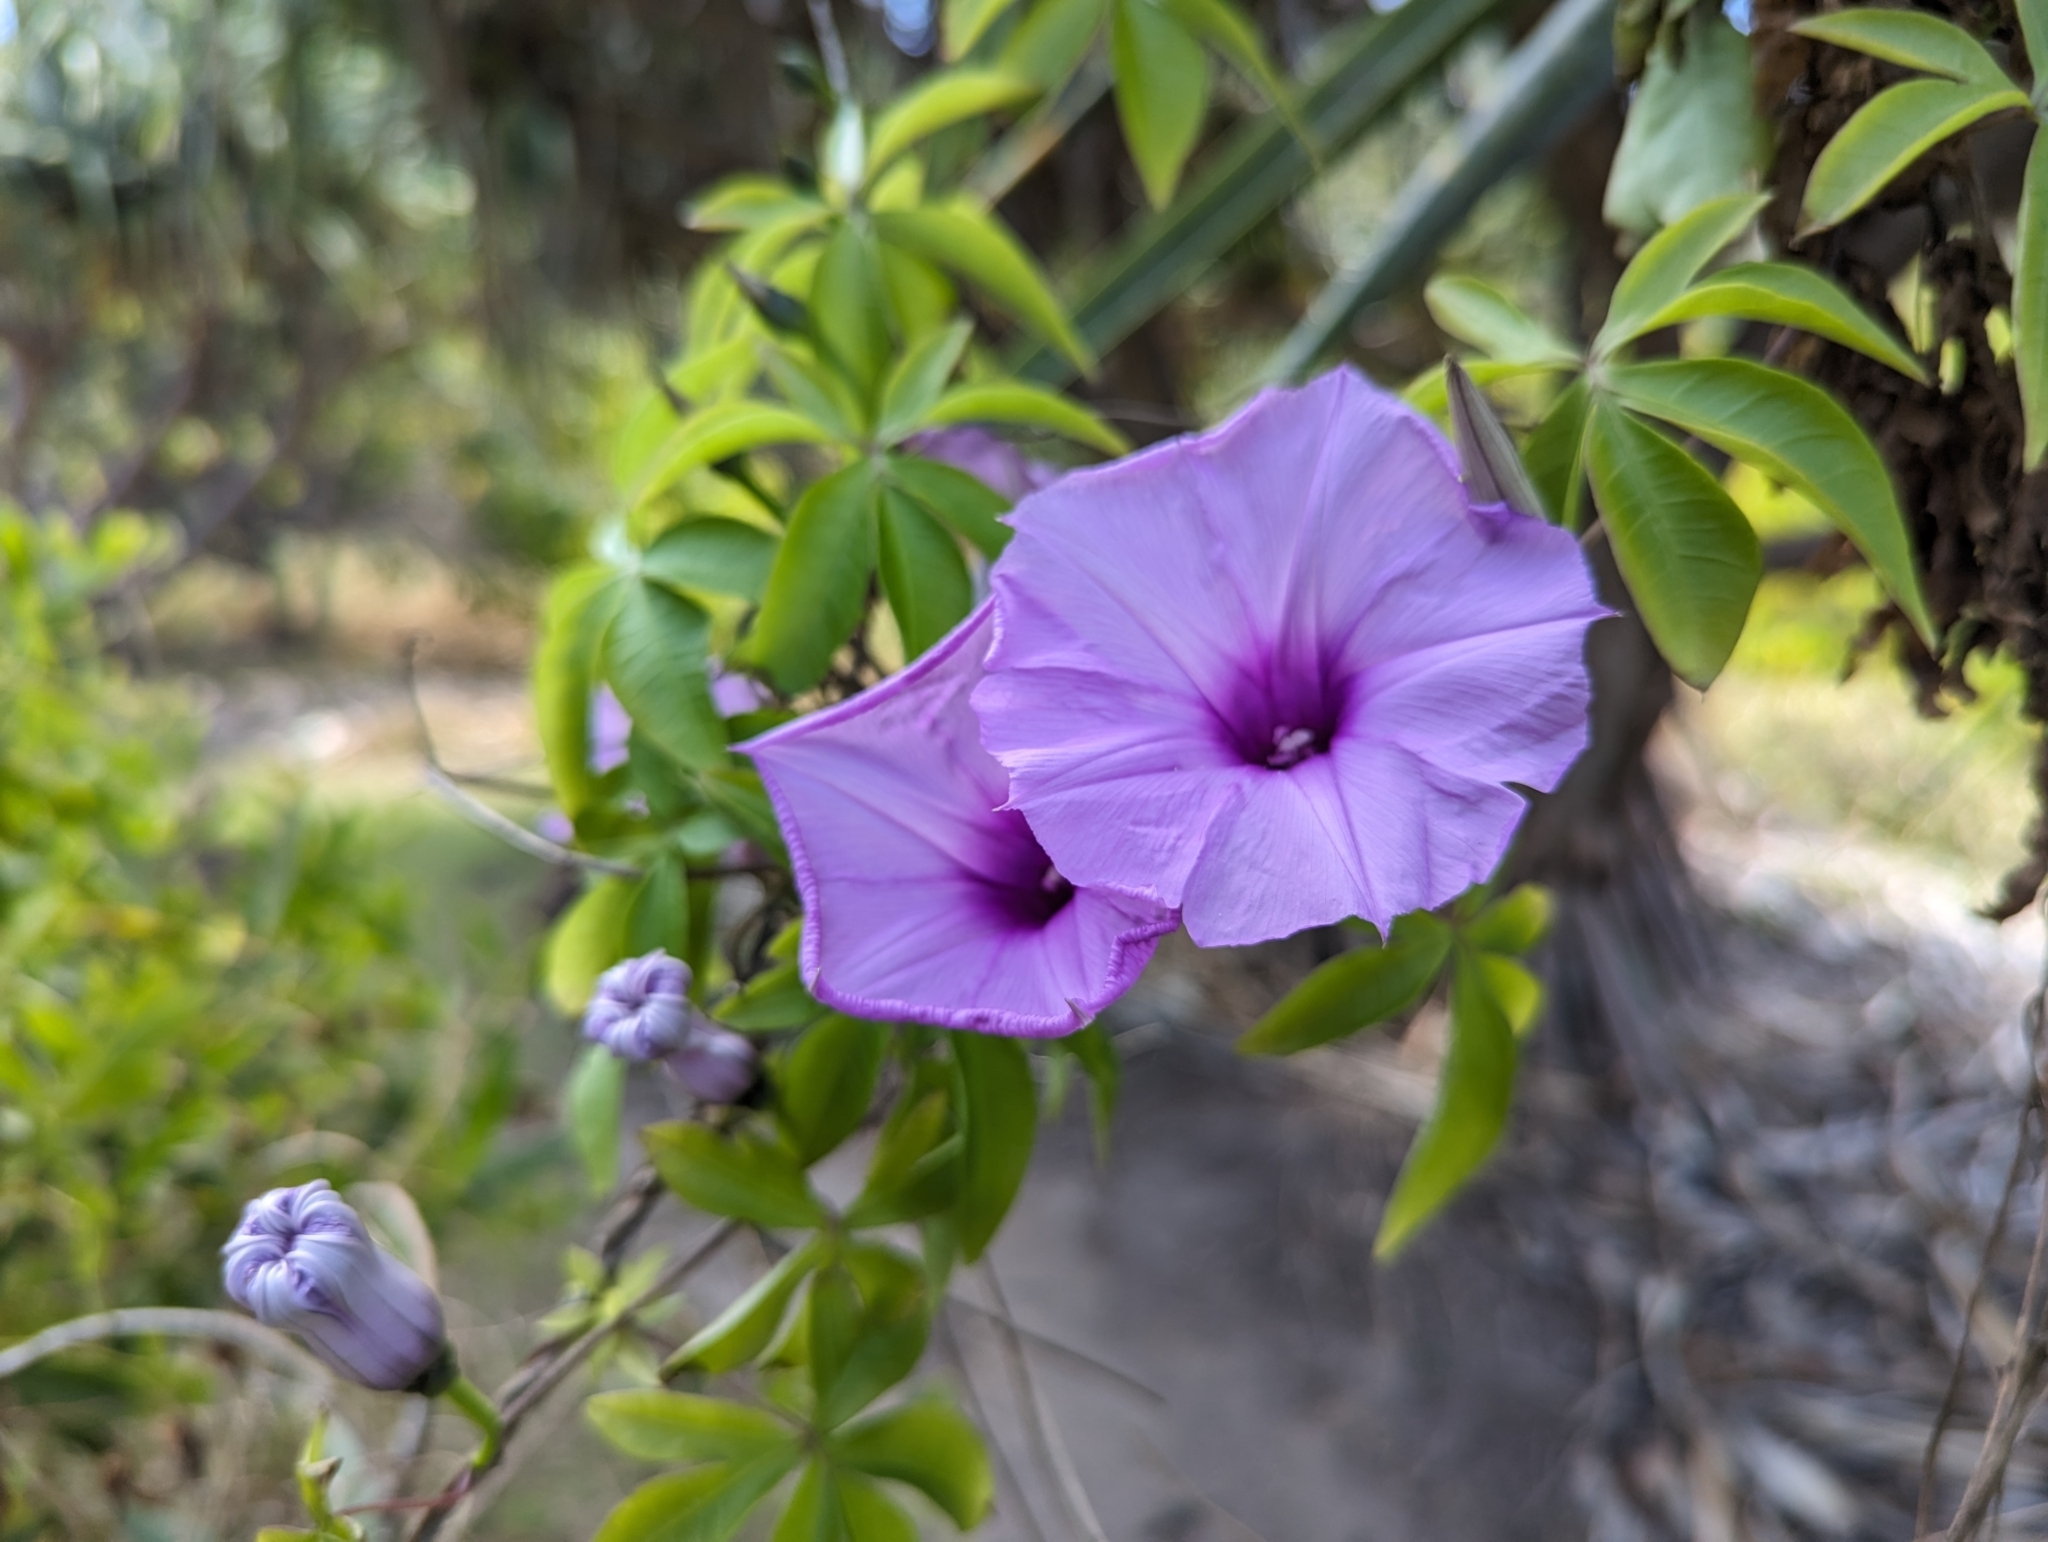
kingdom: Plantae
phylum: Tracheophyta
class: Magnoliopsida
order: Solanales
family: Convolvulaceae
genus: Ipomoea
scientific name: Ipomoea cairica
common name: Mile a minute vine
